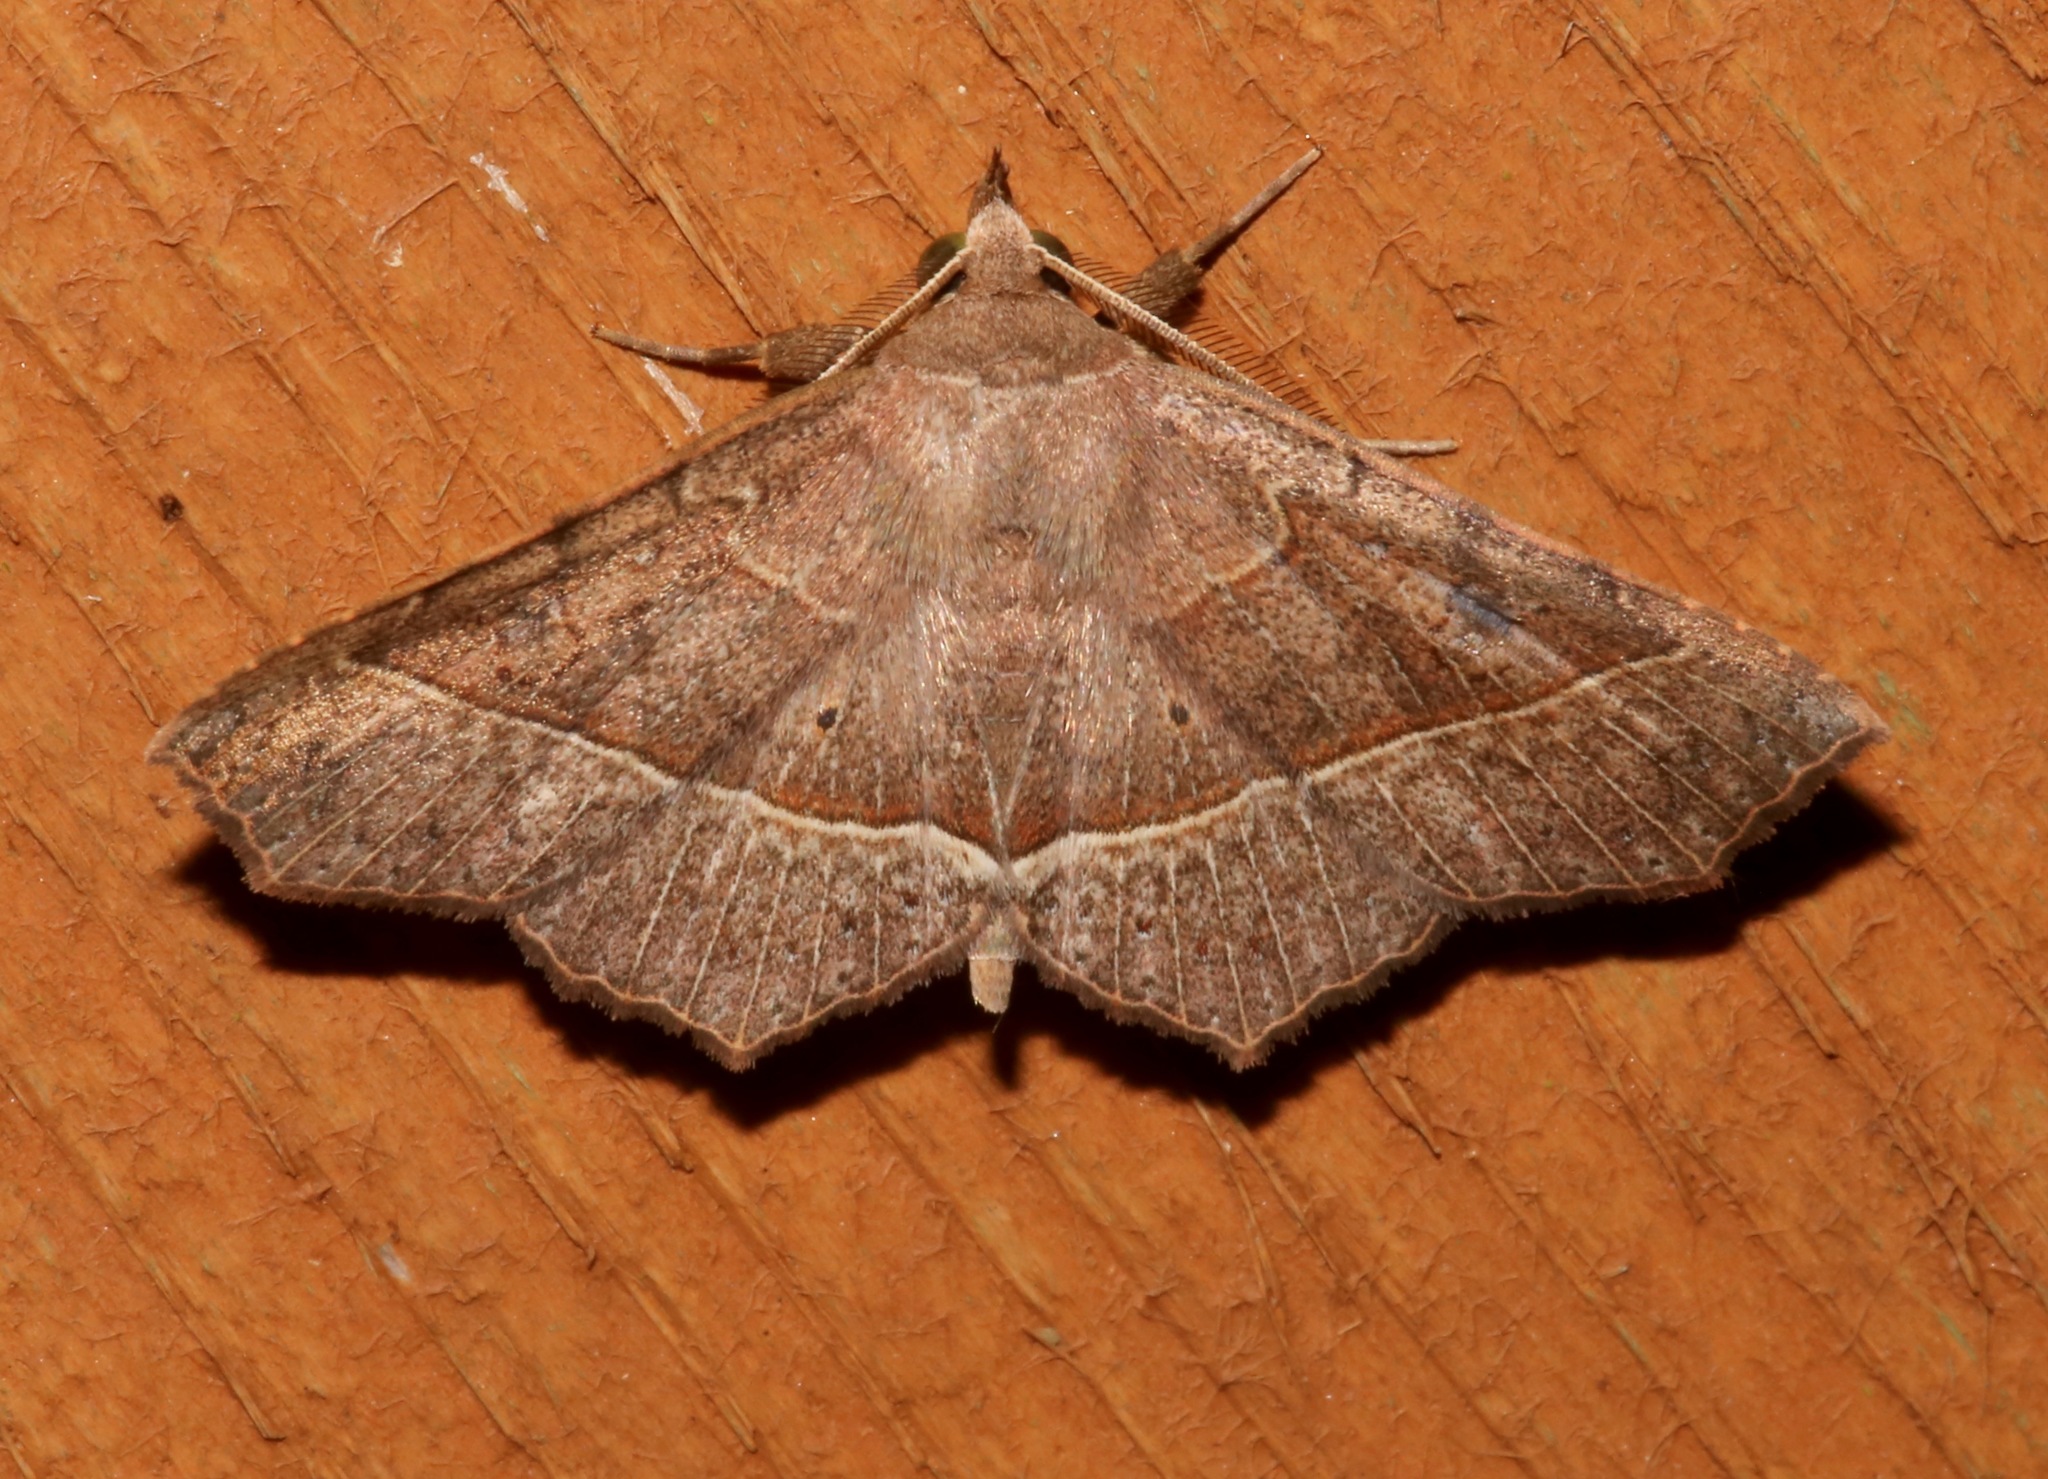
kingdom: Animalia
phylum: Arthropoda
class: Insecta
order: Lepidoptera
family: Erebidae
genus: Ephyrodes
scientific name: Ephyrodes cacata
